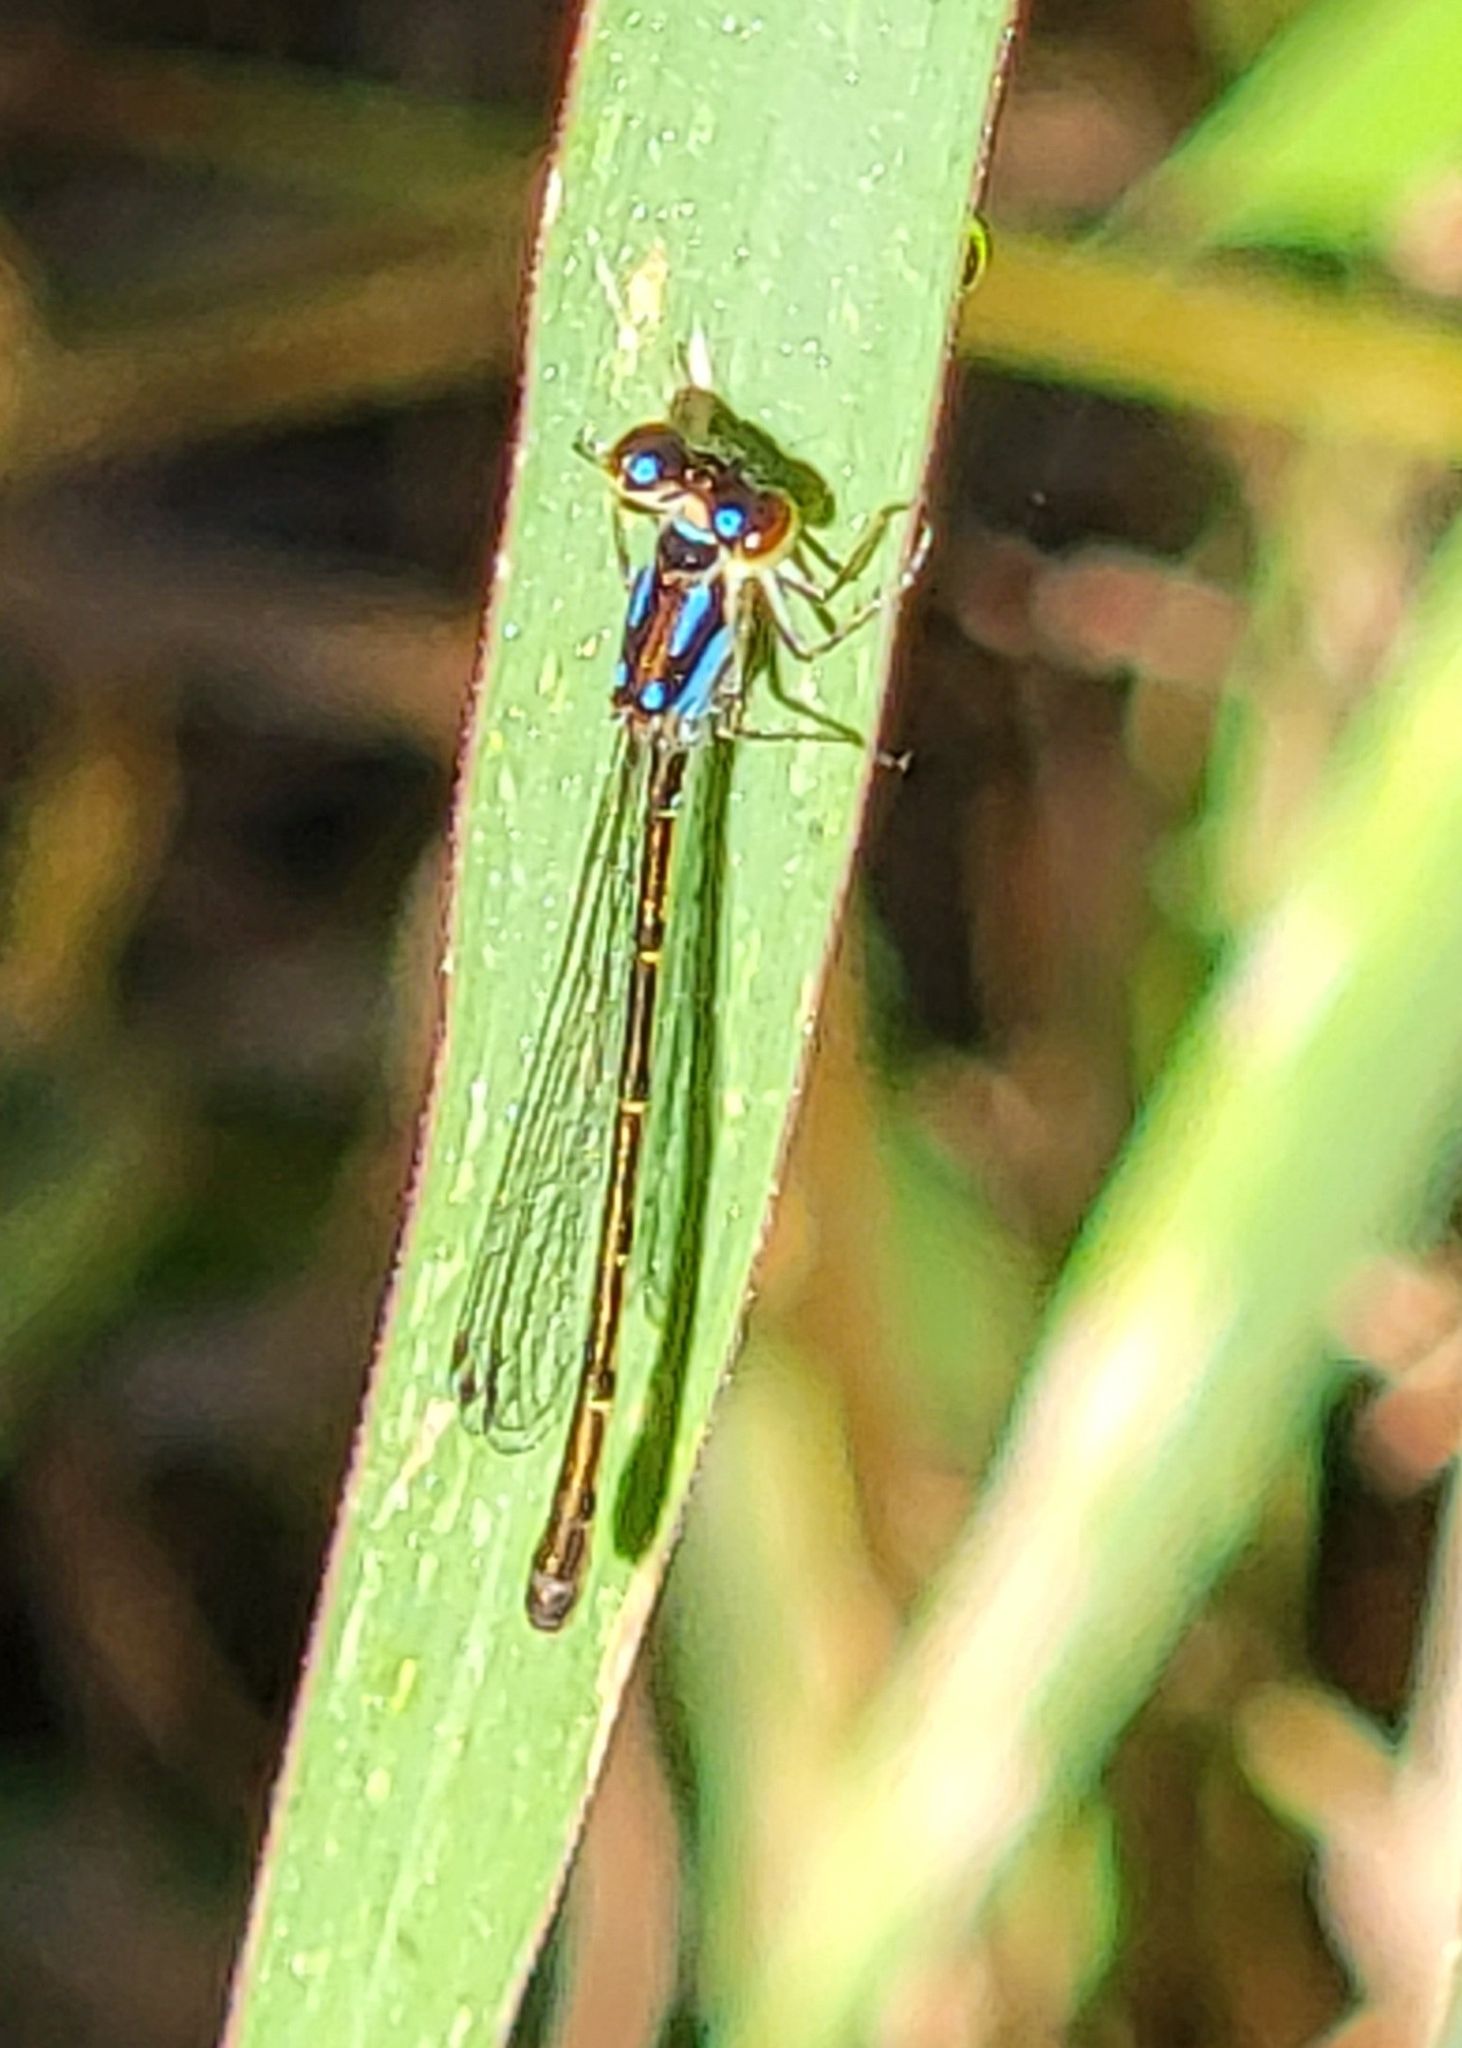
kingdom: Animalia
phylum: Arthropoda
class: Insecta
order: Odonata
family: Coenagrionidae
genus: Ischnura
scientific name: Ischnura posita
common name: Fragile forktail
